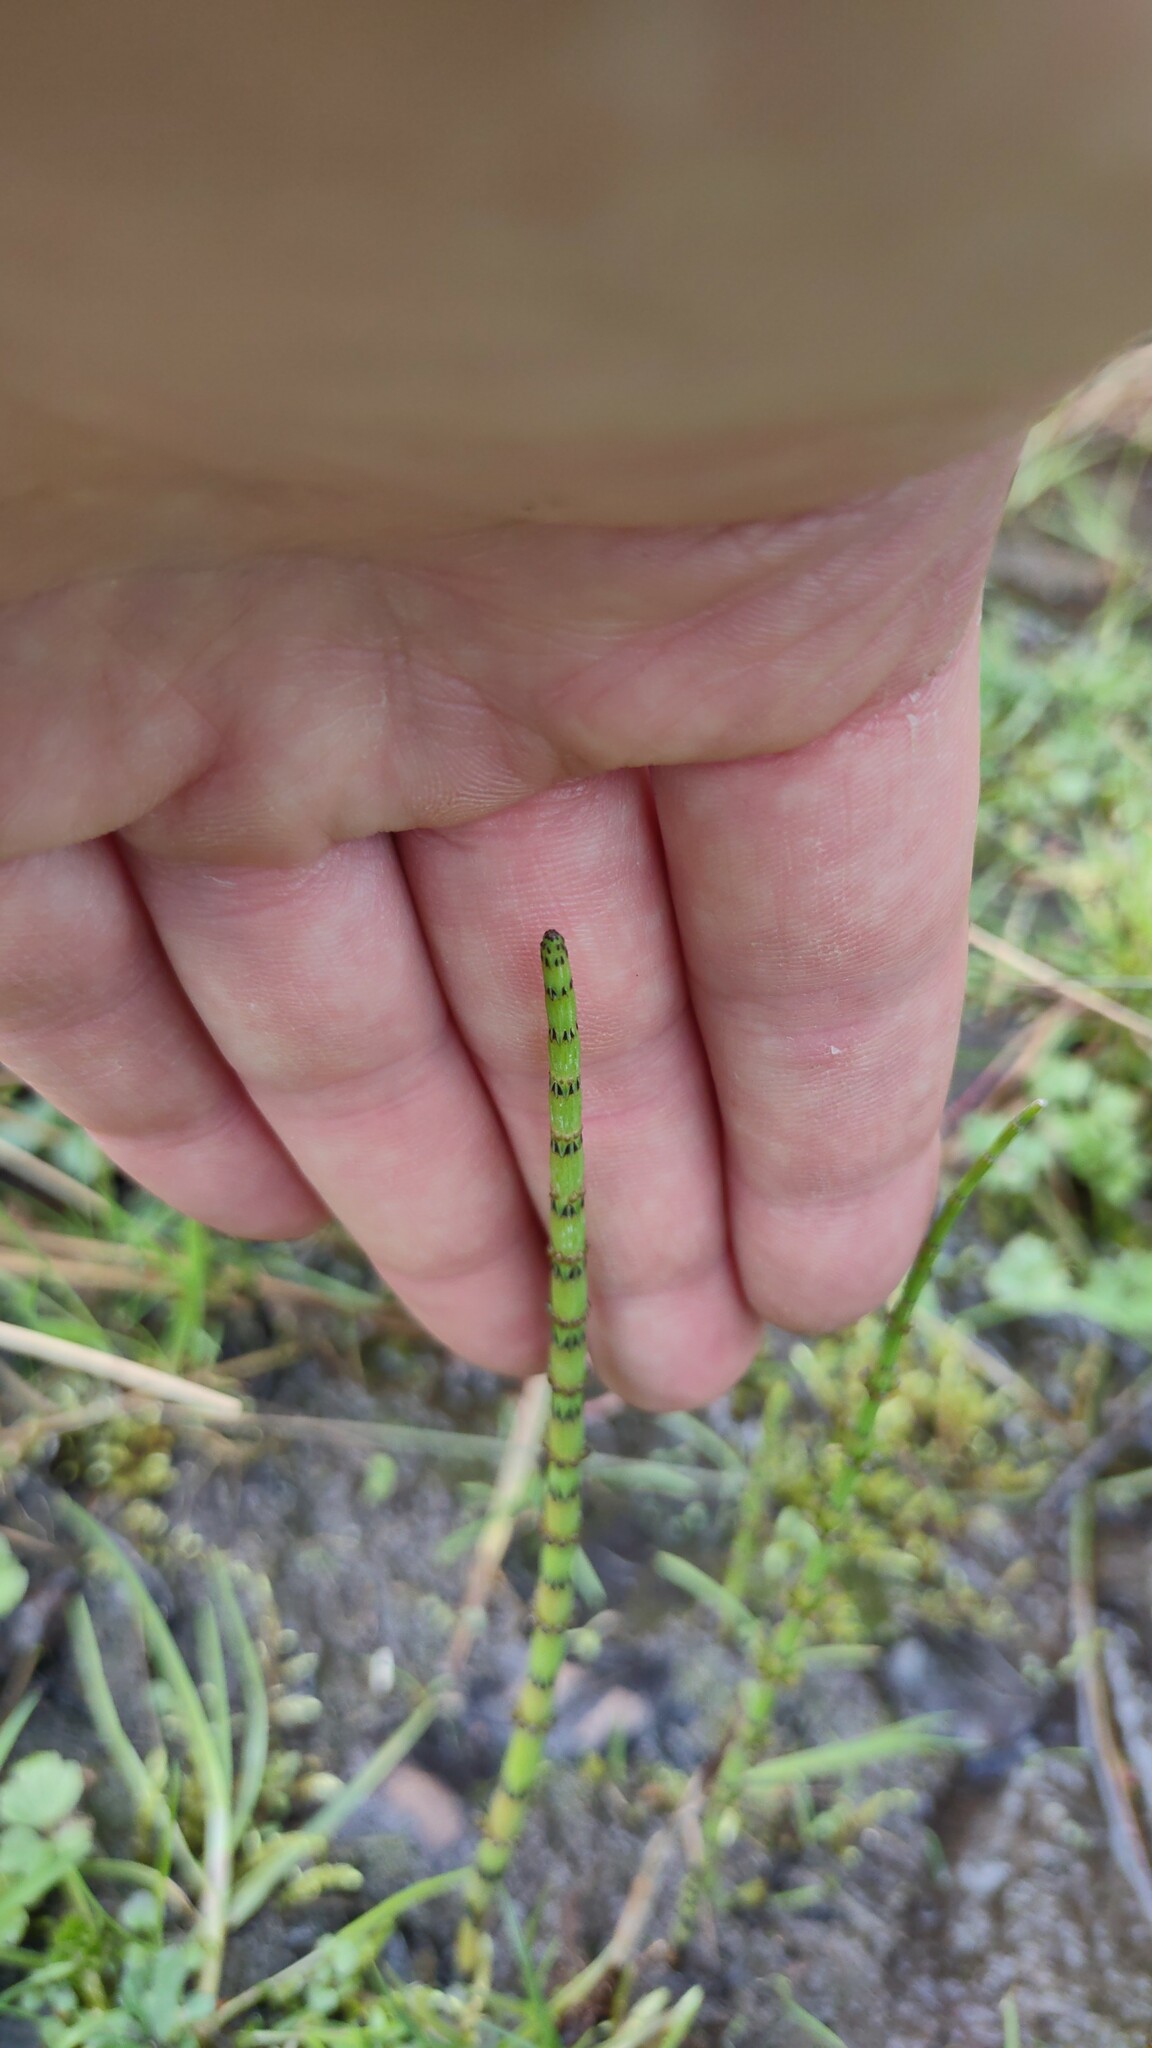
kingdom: Plantae
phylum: Tracheophyta
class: Polypodiopsida
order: Equisetales
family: Equisetaceae
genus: Equisetum
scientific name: Equisetum palustre
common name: Marsh horsetail
